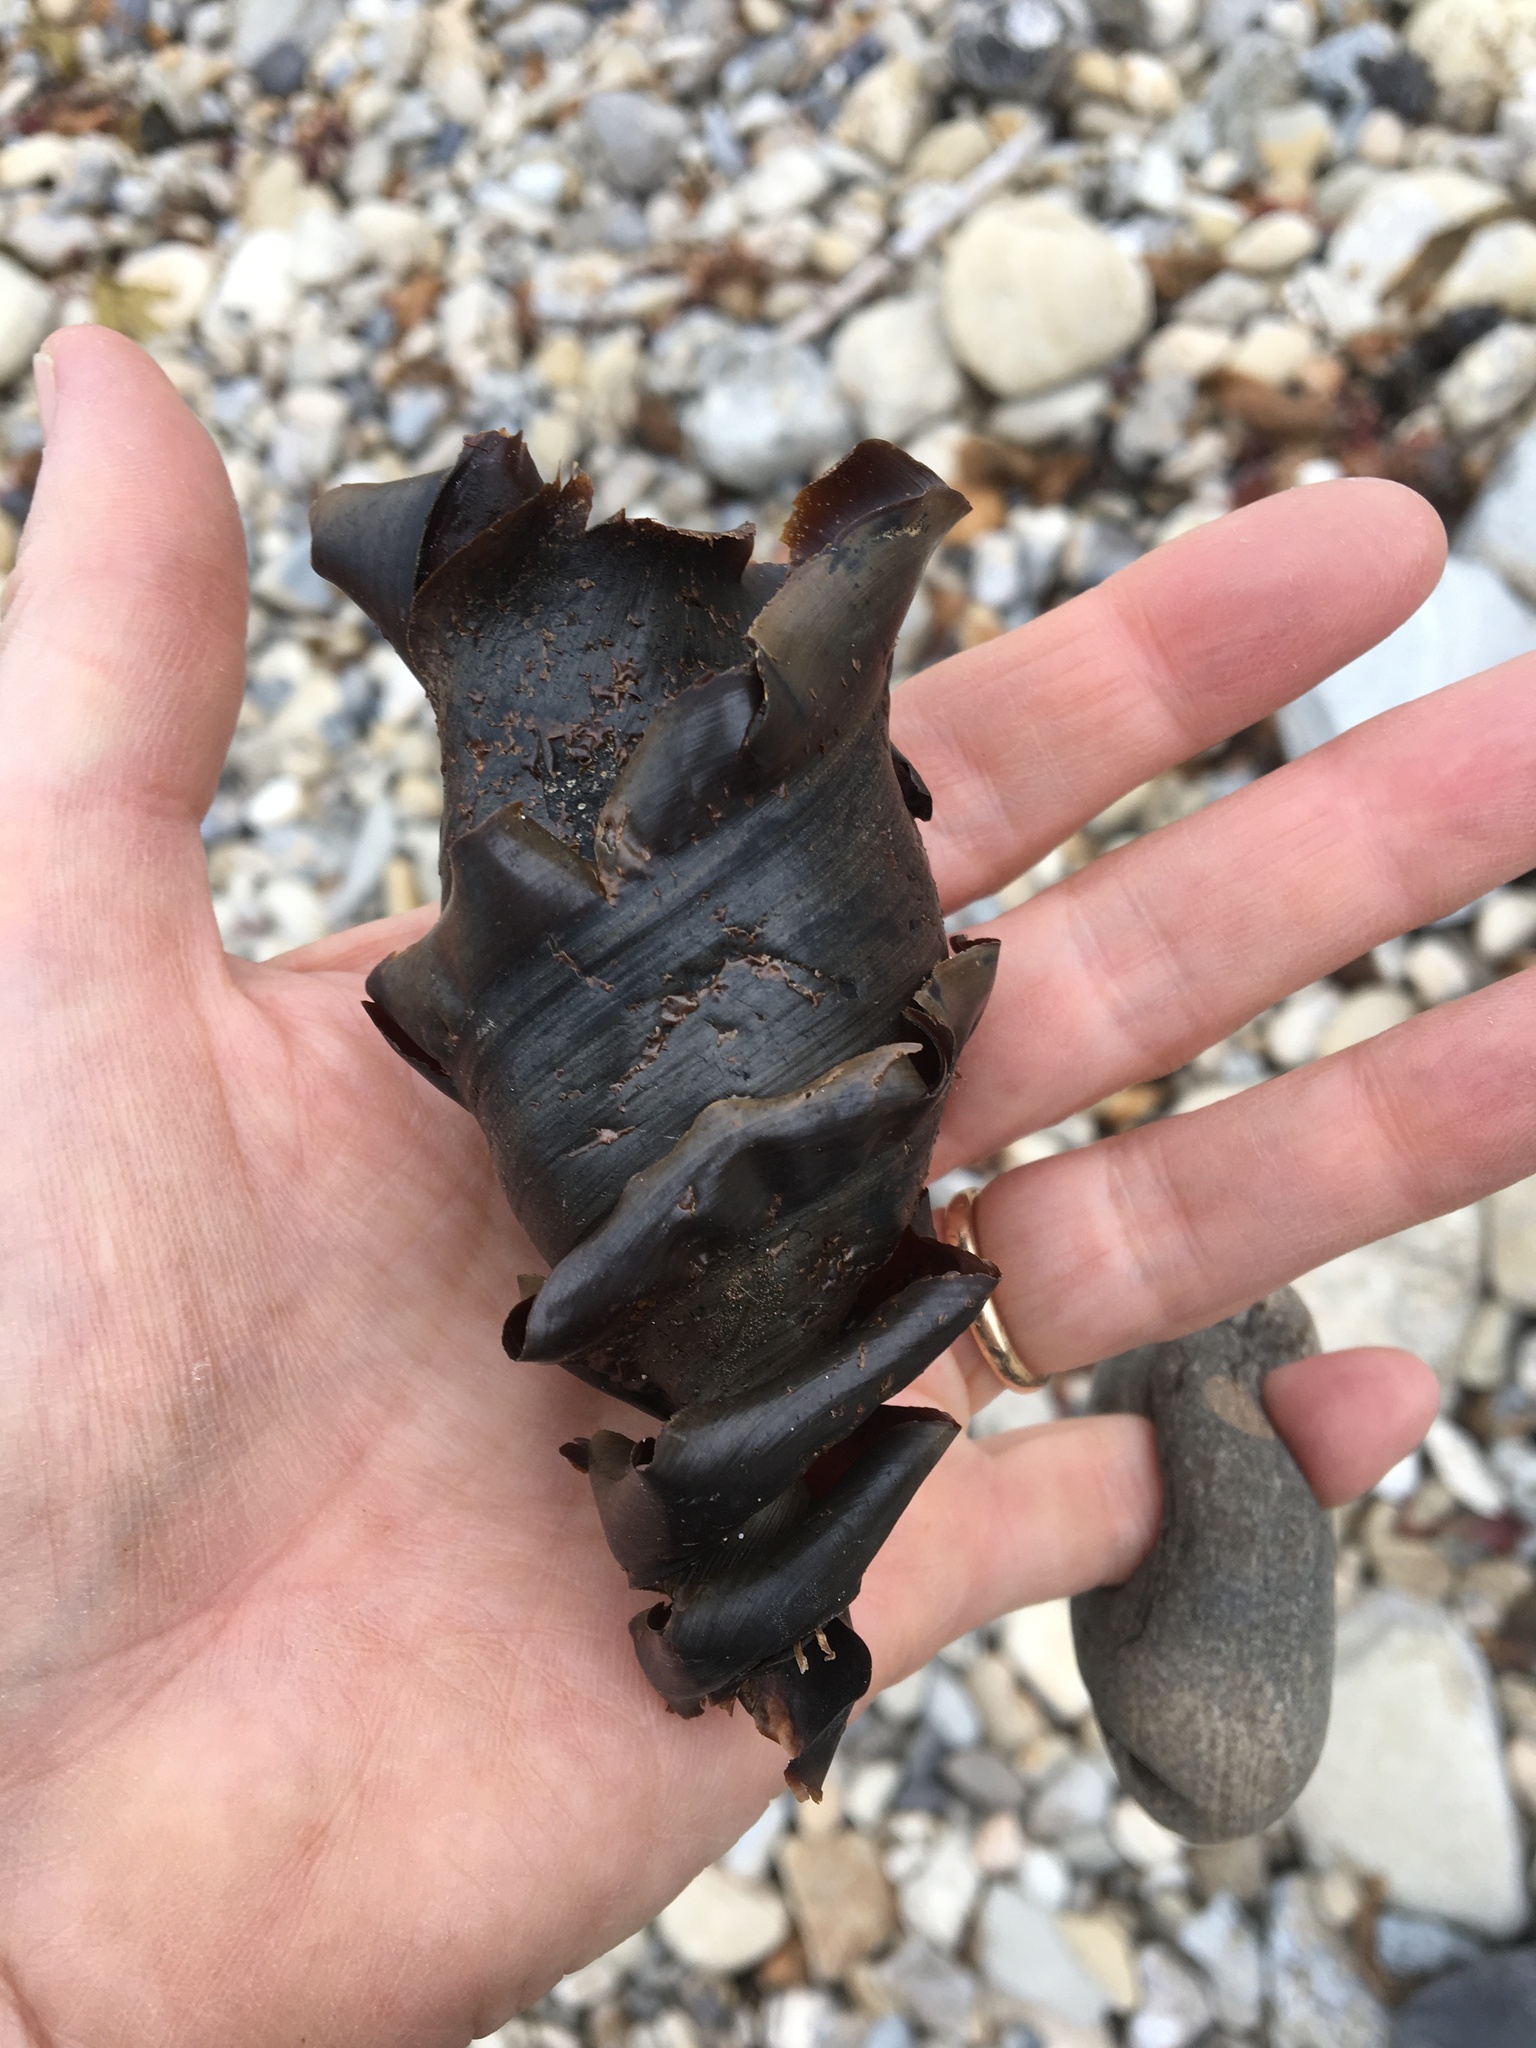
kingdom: Animalia
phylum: Chordata
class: Elasmobranchii
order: Heterodontiformes
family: Heterodontidae
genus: Heterodontus
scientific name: Heterodontus francisci
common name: Horn shark
